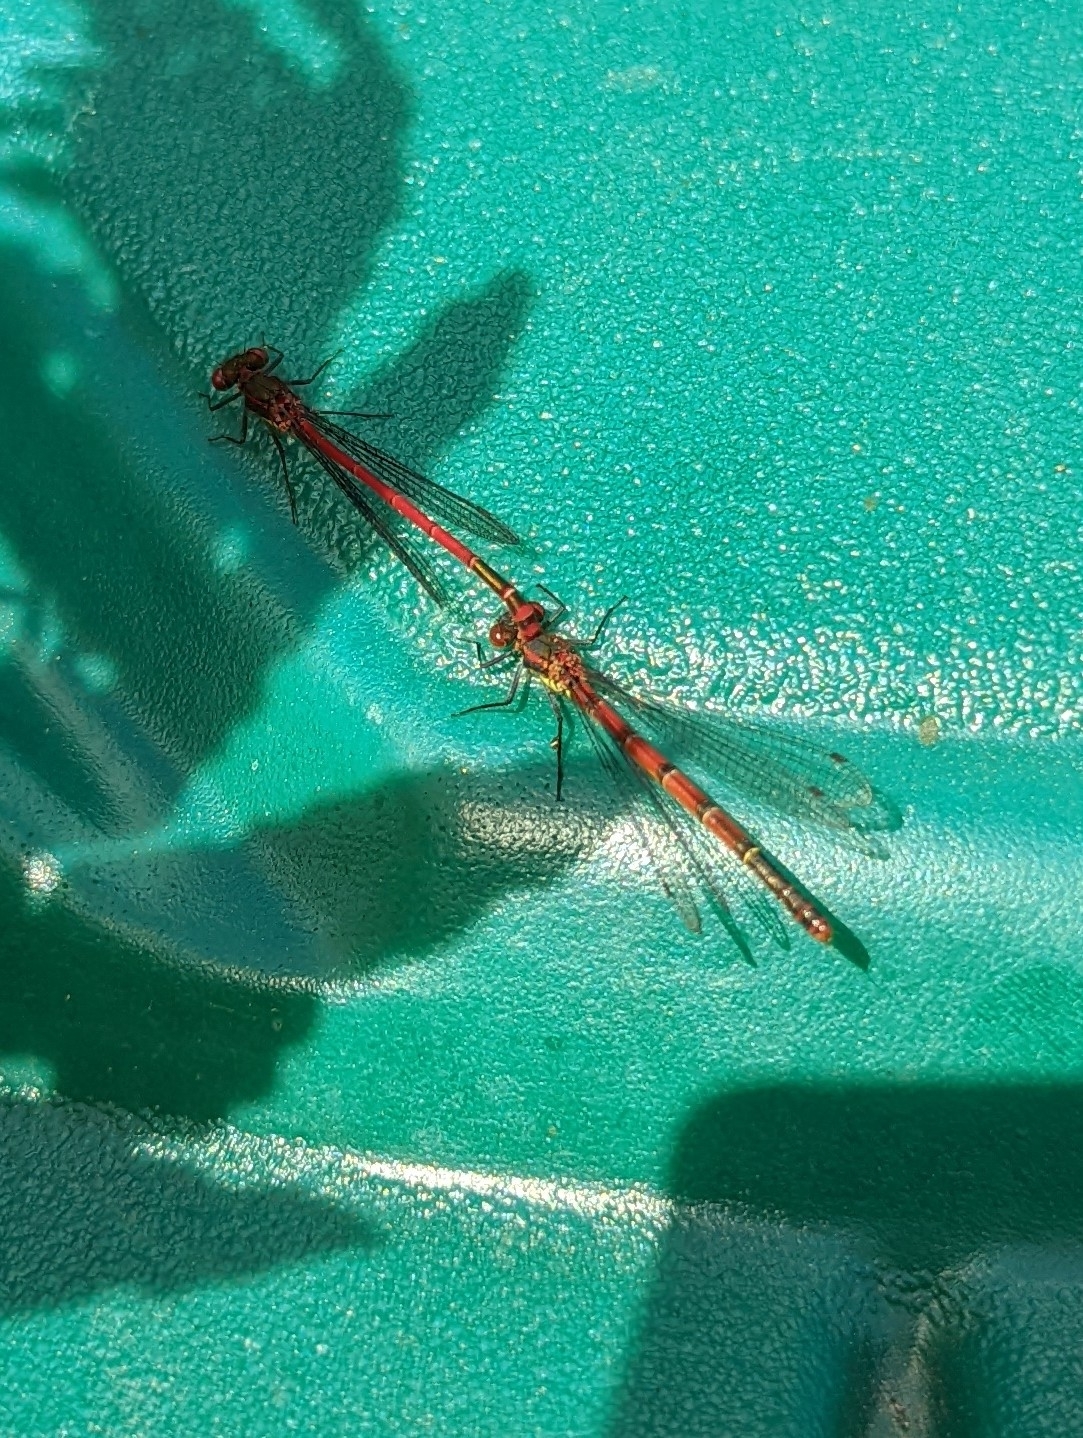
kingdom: Animalia
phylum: Arthropoda
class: Insecta
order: Odonata
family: Coenagrionidae
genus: Pyrrhosoma
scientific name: Pyrrhosoma nymphula
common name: Large red damsel
